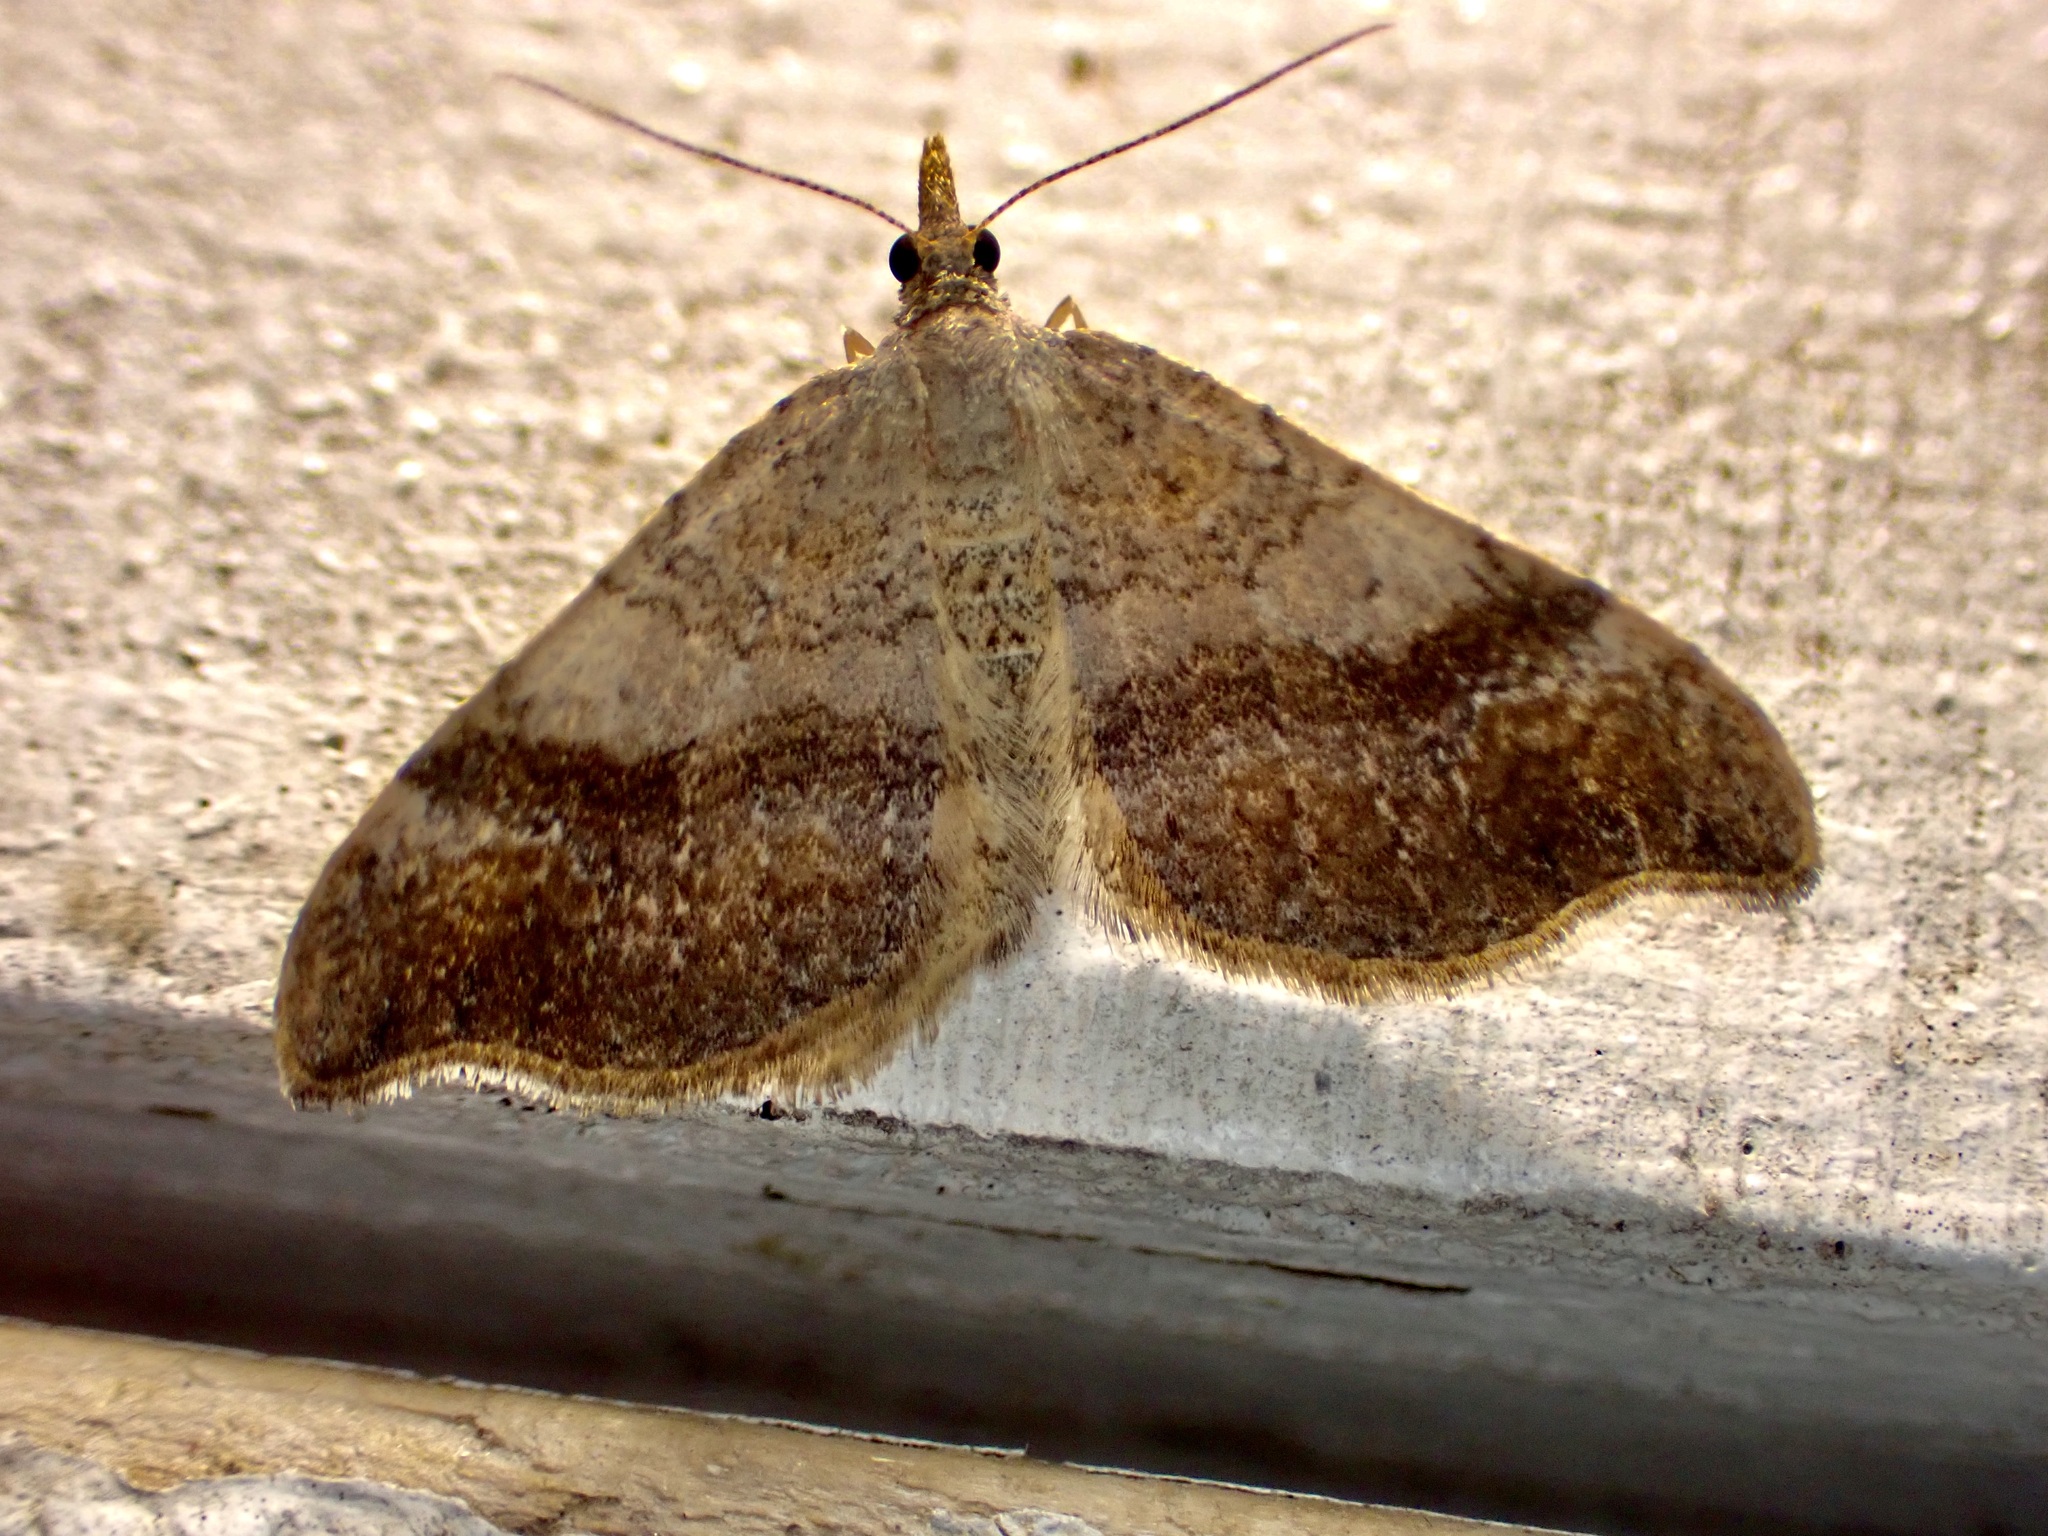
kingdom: Animalia
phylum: Arthropoda
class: Insecta
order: Lepidoptera
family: Geometridae
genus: Homodotis
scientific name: Homodotis megaspilata
